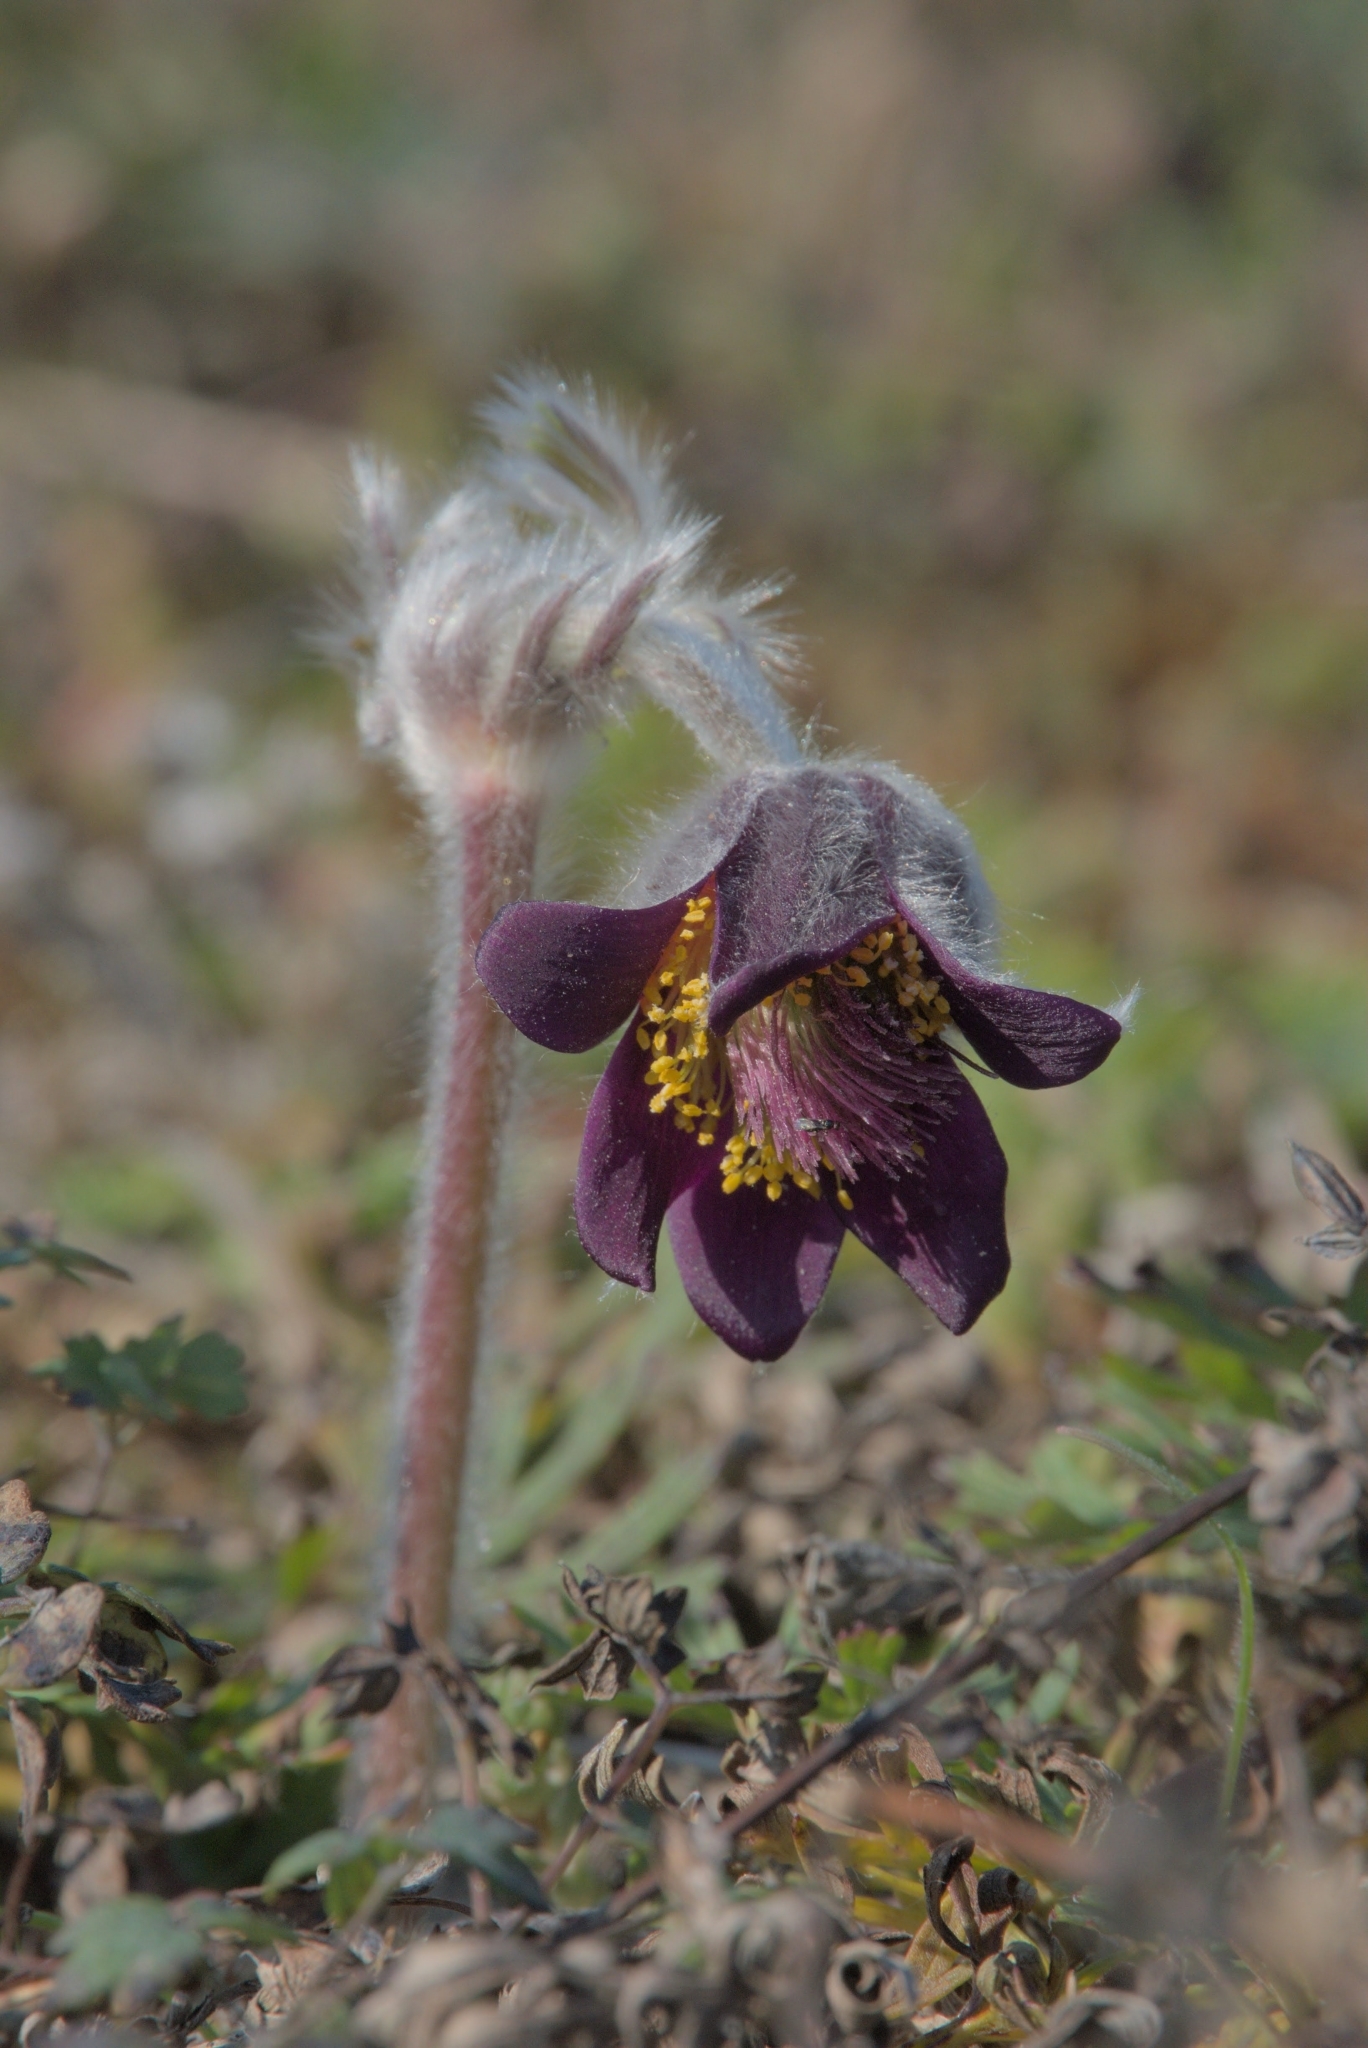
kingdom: Plantae
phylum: Tracheophyta
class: Magnoliopsida
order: Ranunculales
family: Ranunculaceae
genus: Pulsatilla
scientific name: Pulsatilla pratensis
